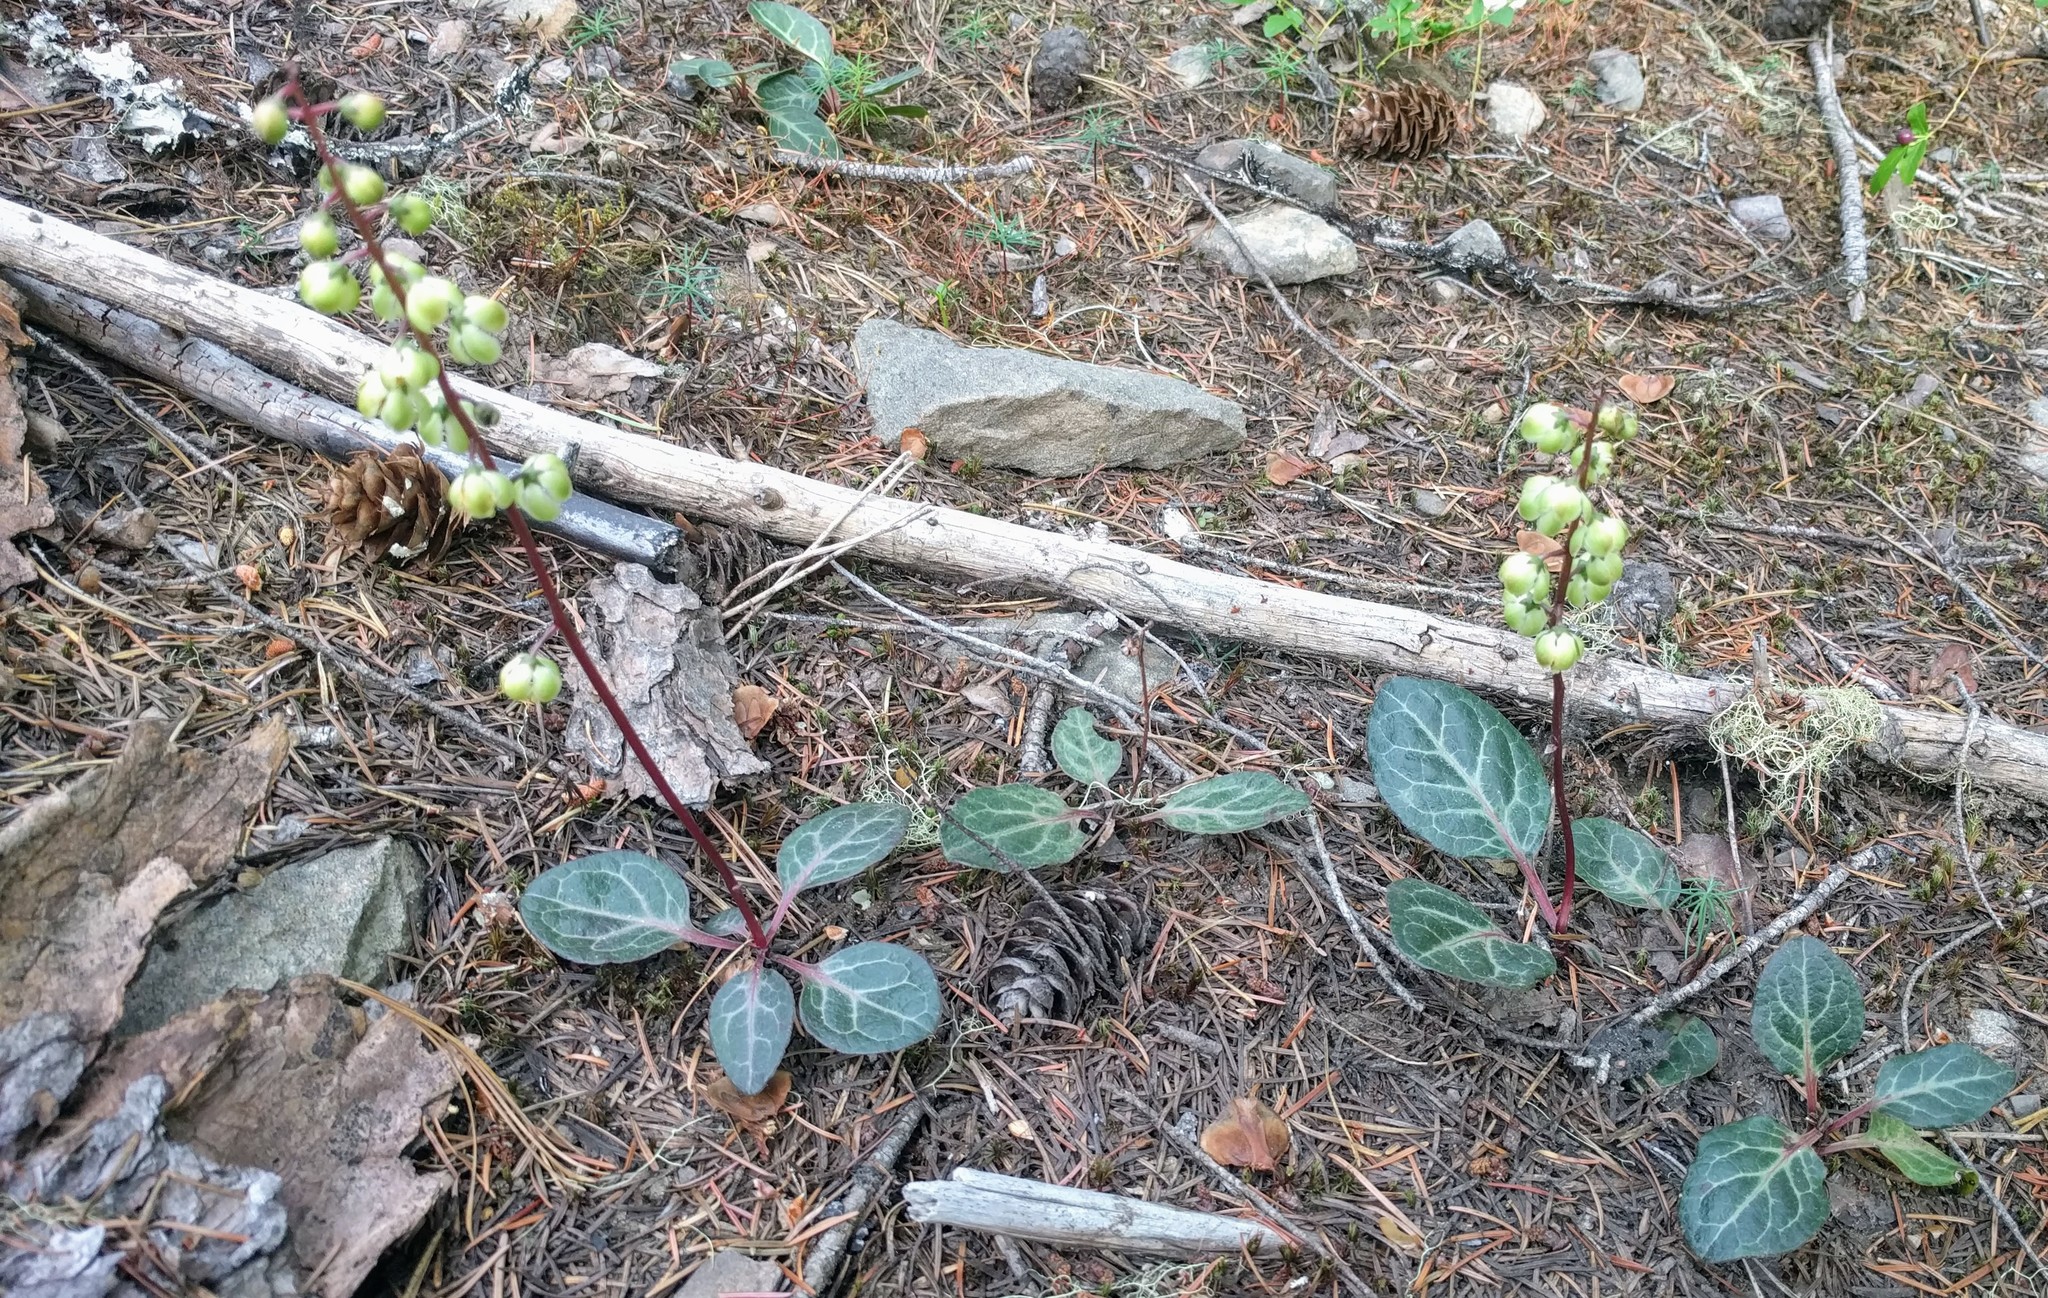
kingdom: Plantae
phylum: Tracheophyta
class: Magnoliopsida
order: Ericales
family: Ericaceae
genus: Pyrola
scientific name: Pyrola picta
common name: White-vein wintergreen
